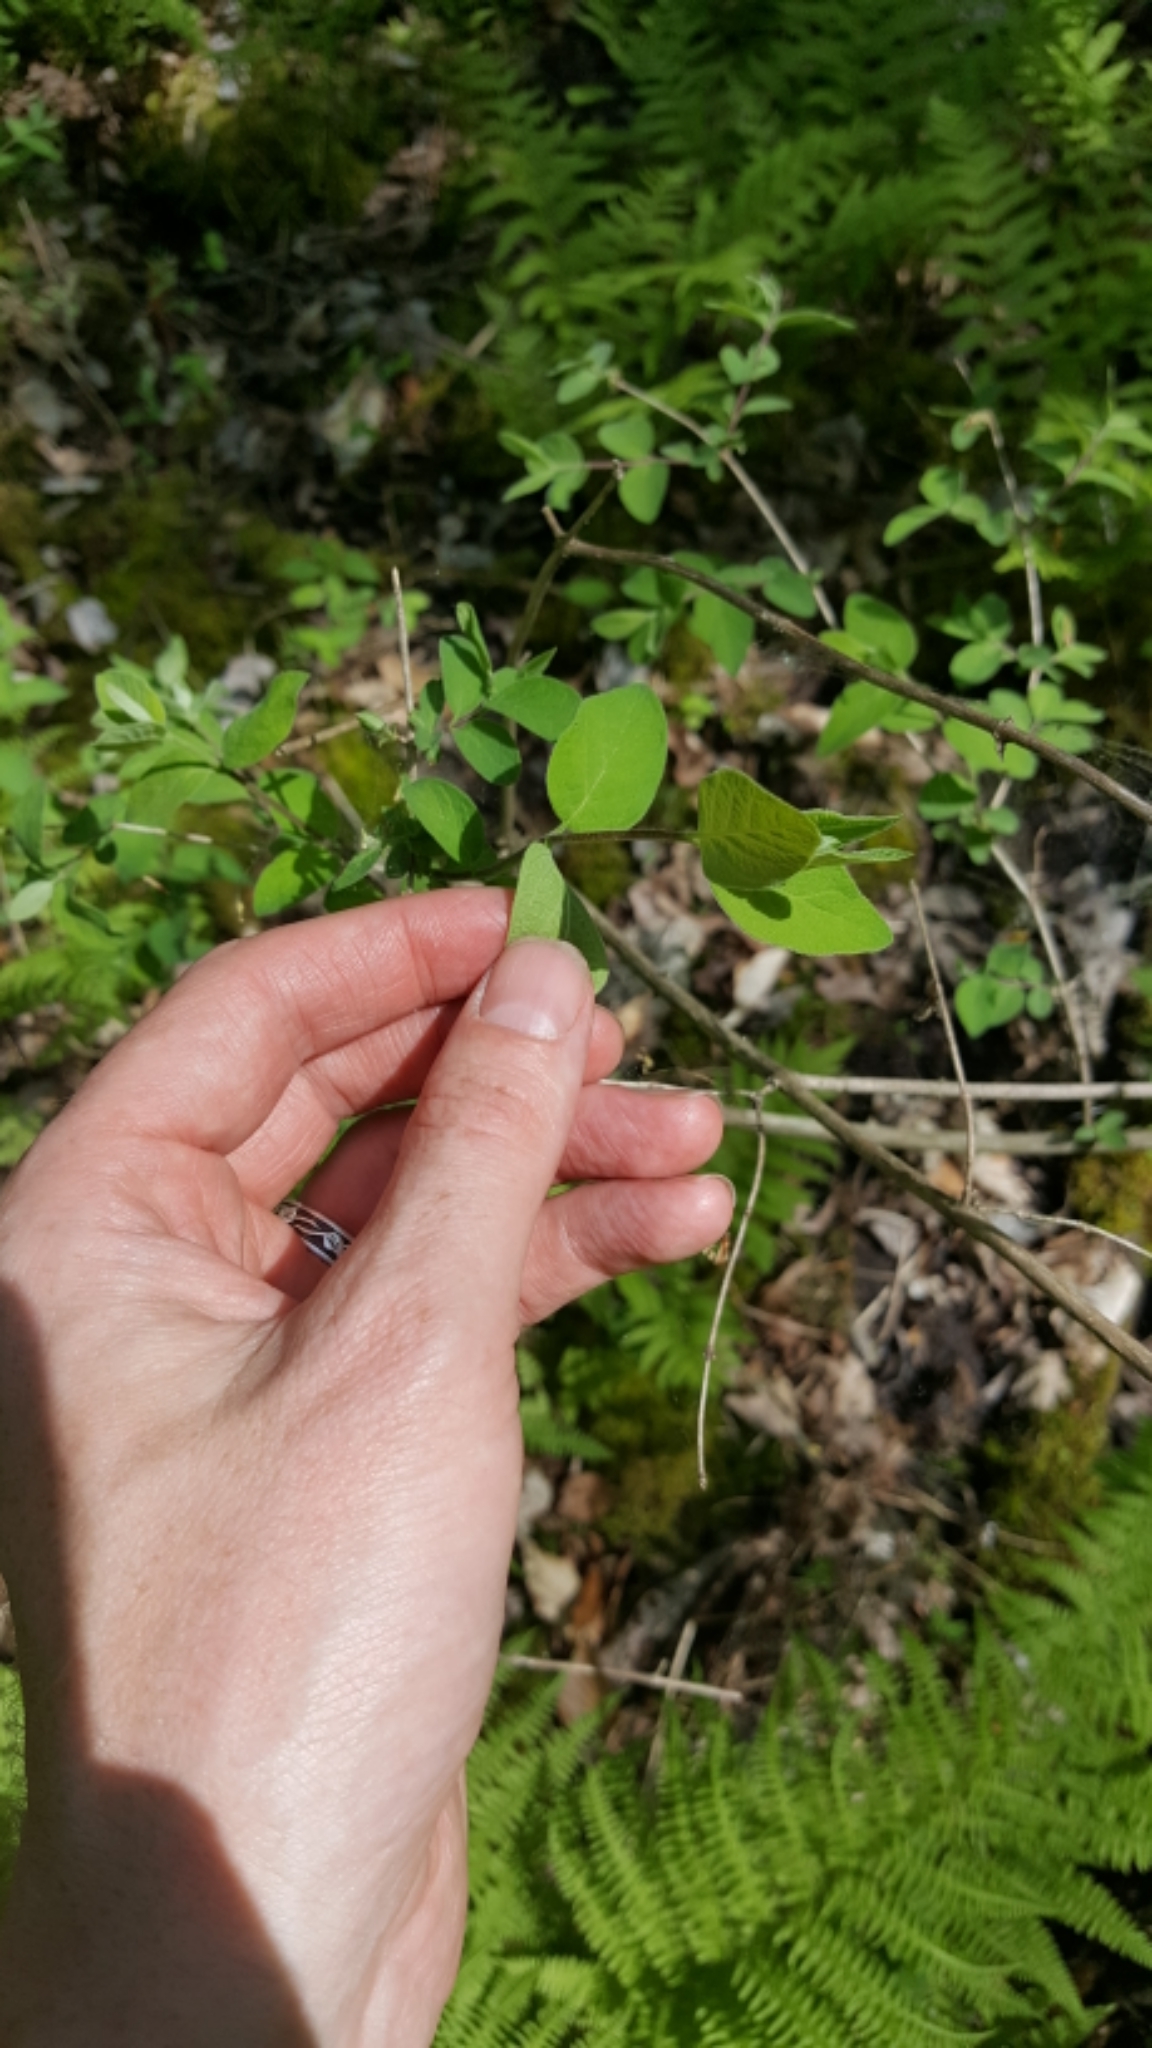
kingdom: Plantae
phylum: Tracheophyta
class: Magnoliopsida
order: Dipsacales
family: Caprifoliaceae
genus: Lonicera
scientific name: Lonicera morrowii
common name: Morrow's honeysuckle
